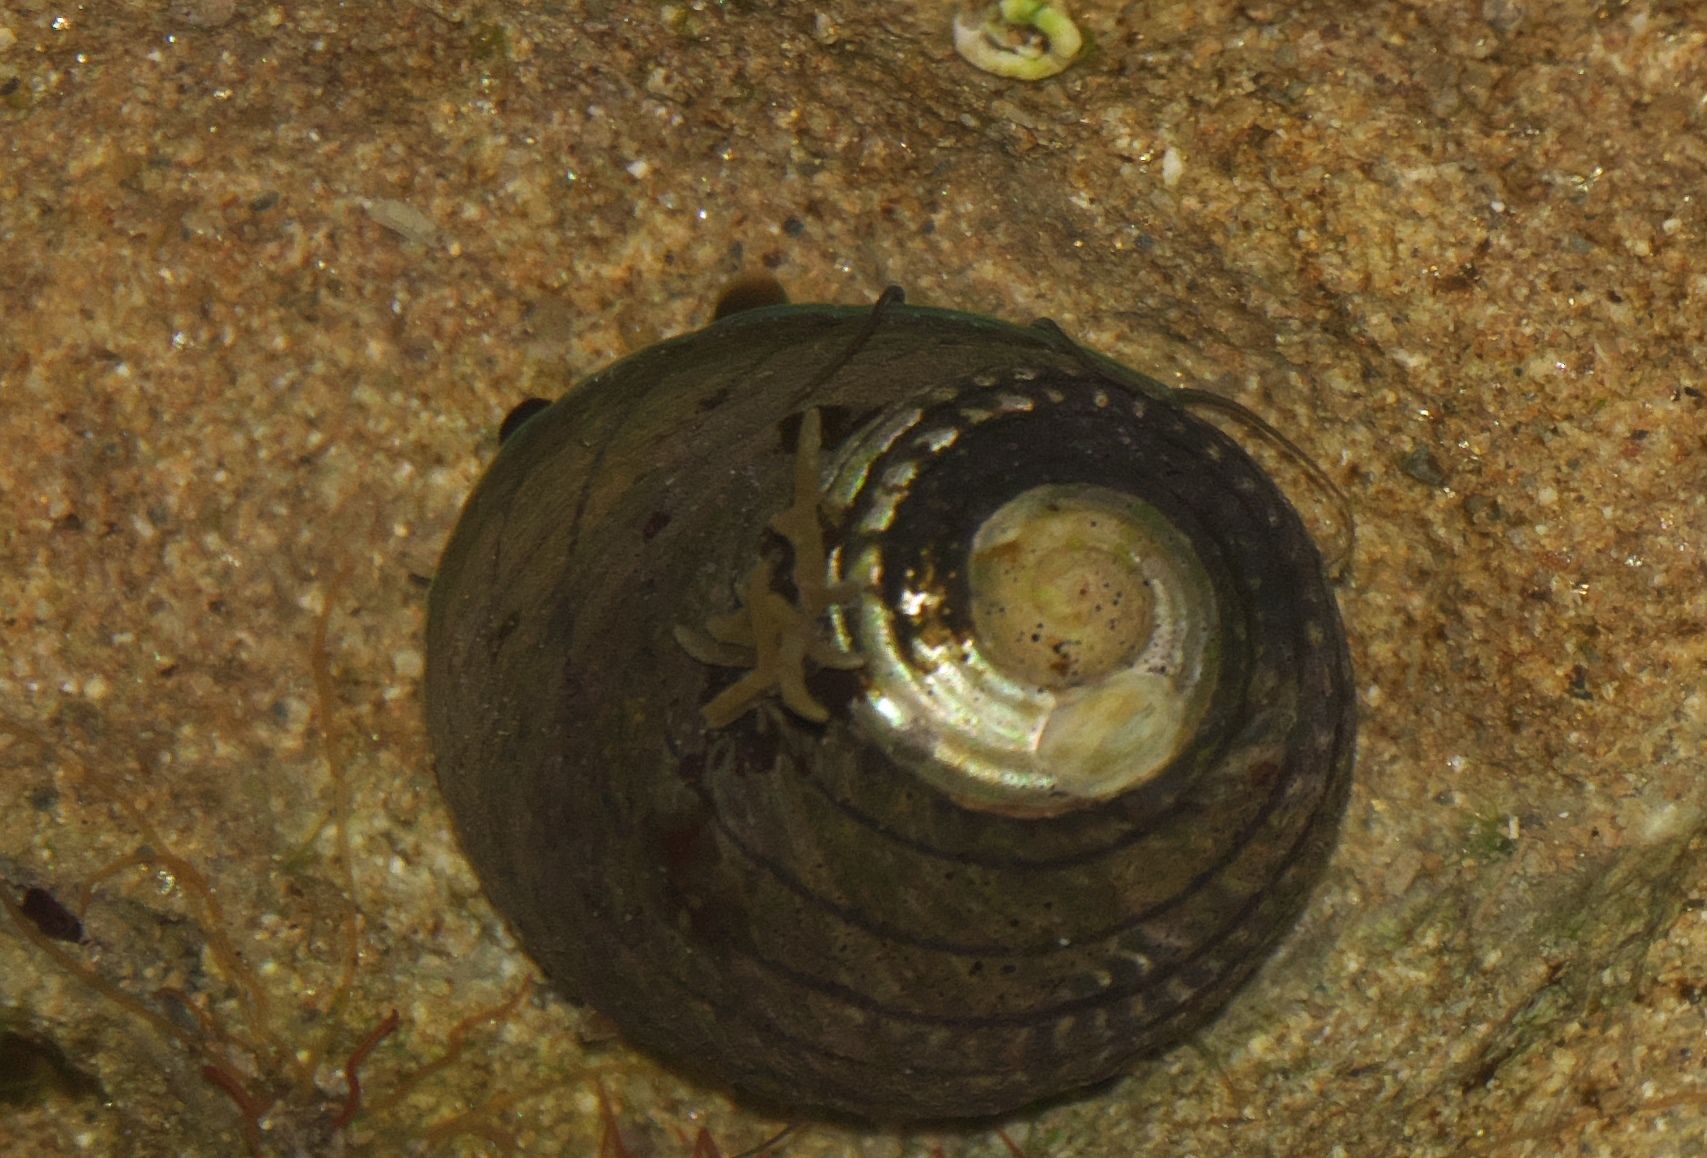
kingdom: Animalia
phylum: Mollusca
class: Gastropoda
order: Trochida
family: Trochidae
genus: Diloma
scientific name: Diloma aethiops
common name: Scorched monodont
